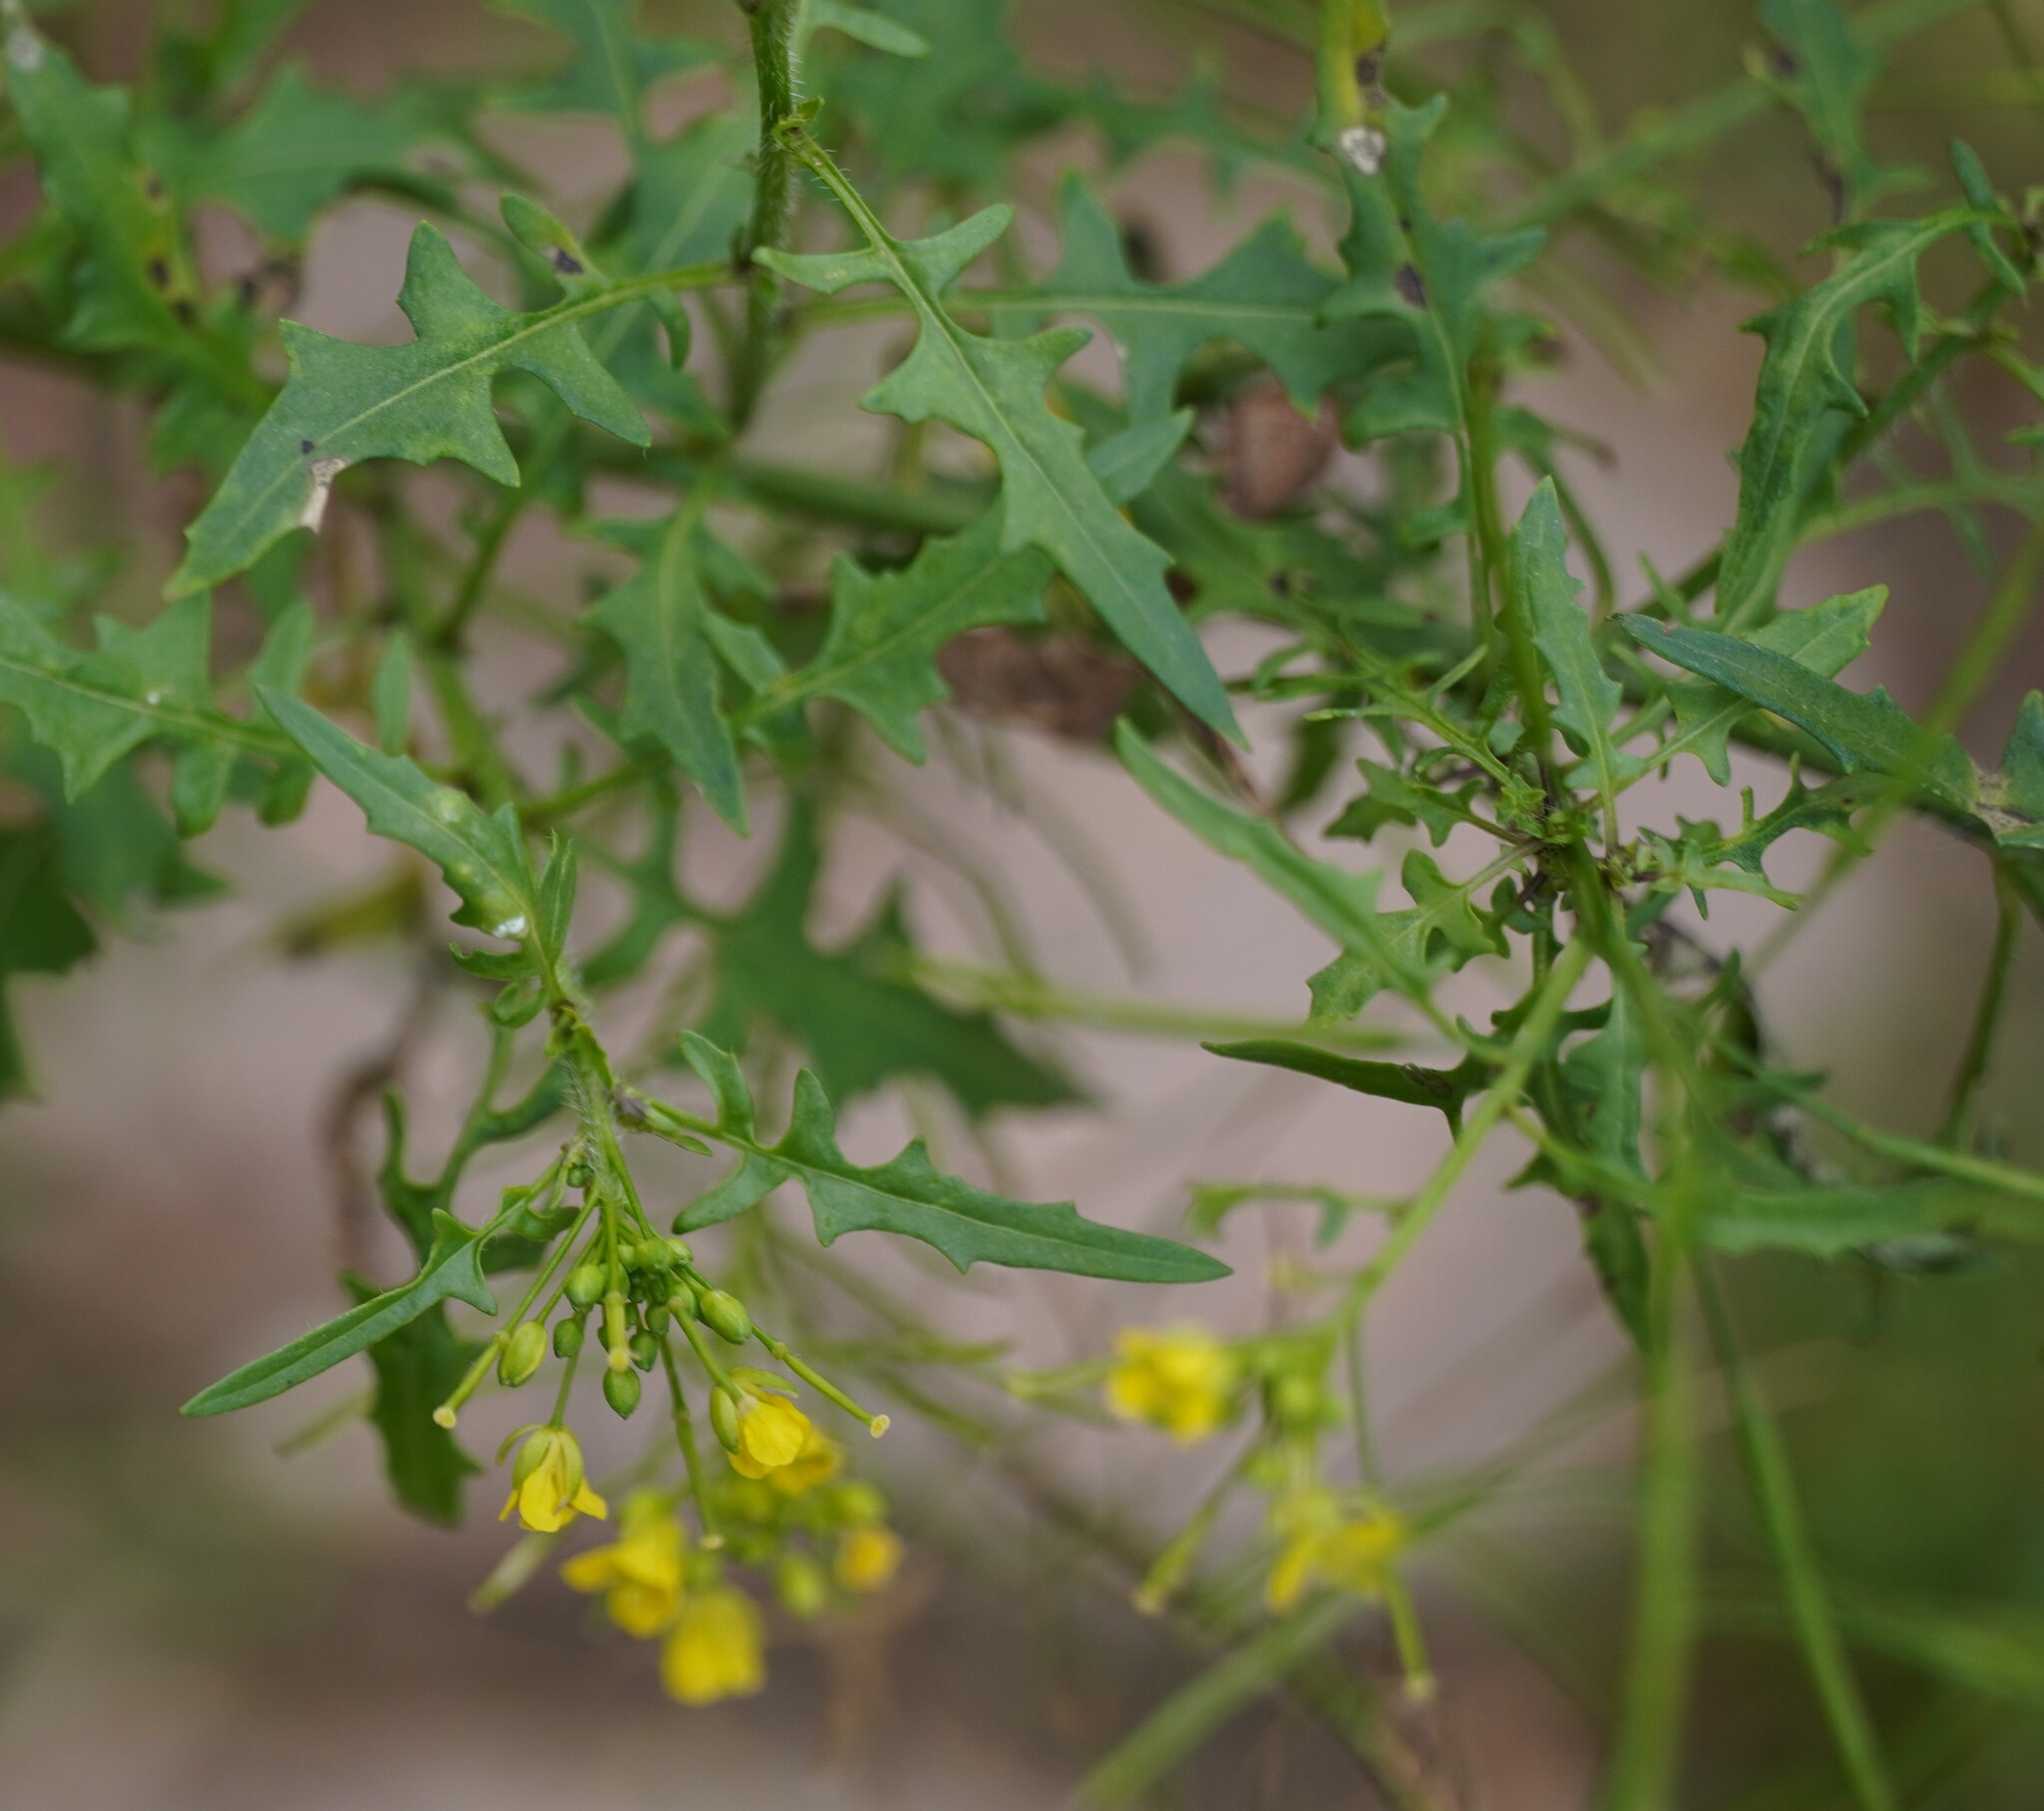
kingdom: Plantae
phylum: Tracheophyta
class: Magnoliopsida
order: Brassicales
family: Brassicaceae
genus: Sisymbrium
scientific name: Sisymbrium loeselii
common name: False london-rocket
